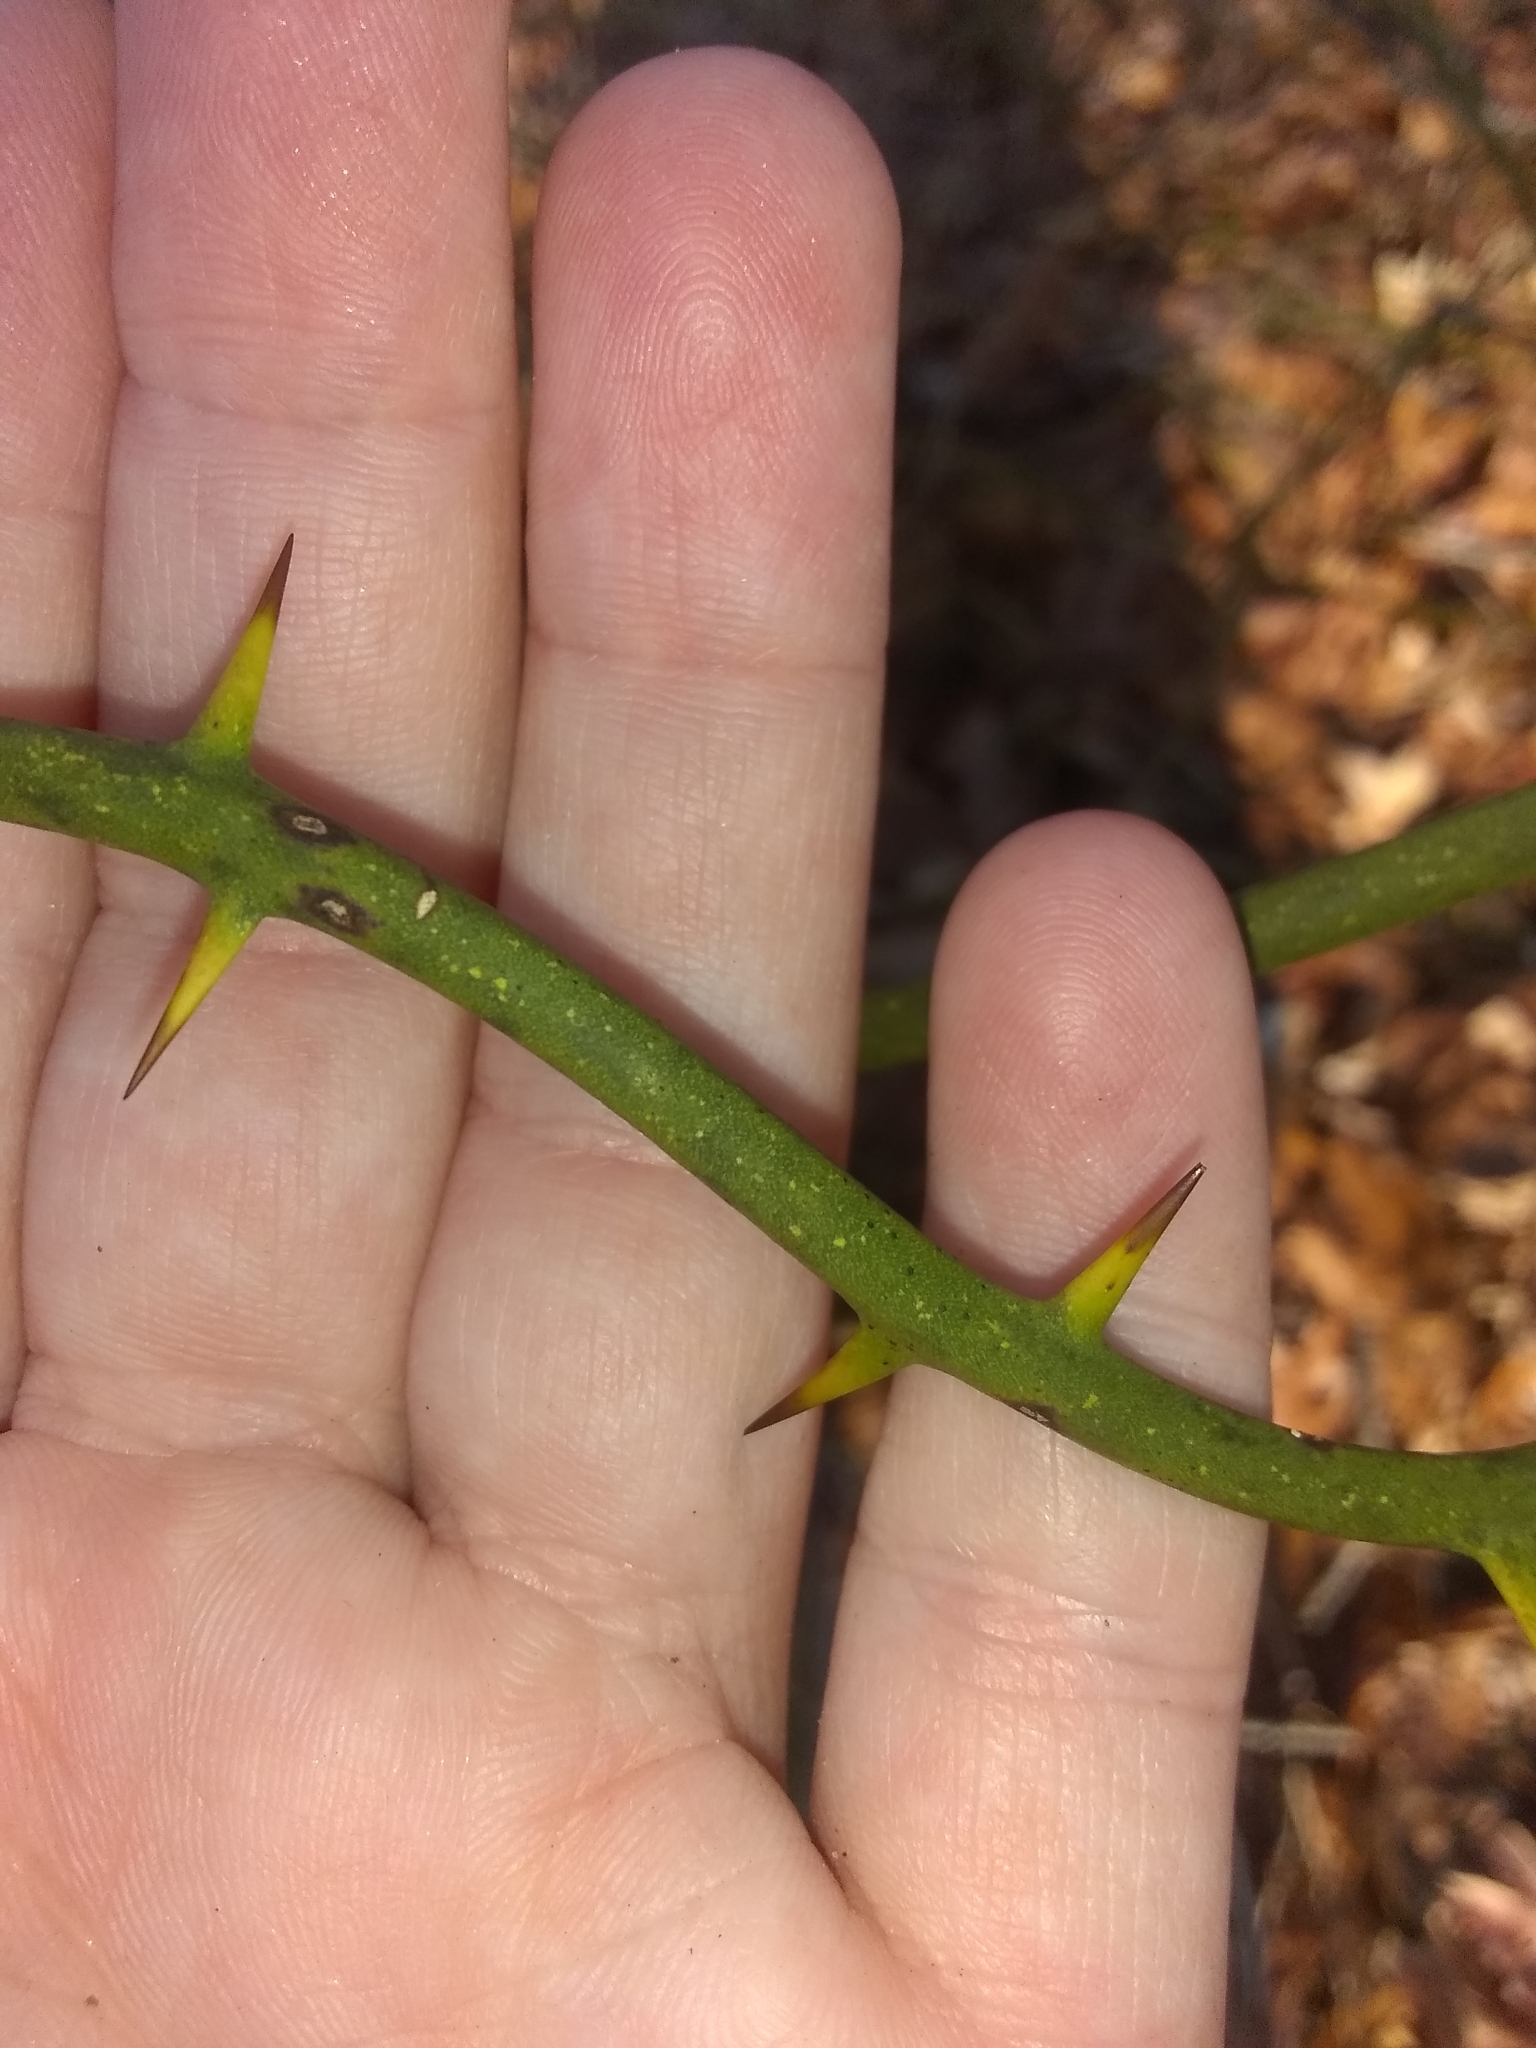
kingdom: Plantae
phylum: Tracheophyta
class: Liliopsida
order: Liliales
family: Smilacaceae
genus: Smilax
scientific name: Smilax rotundifolia
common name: Bullbriar
